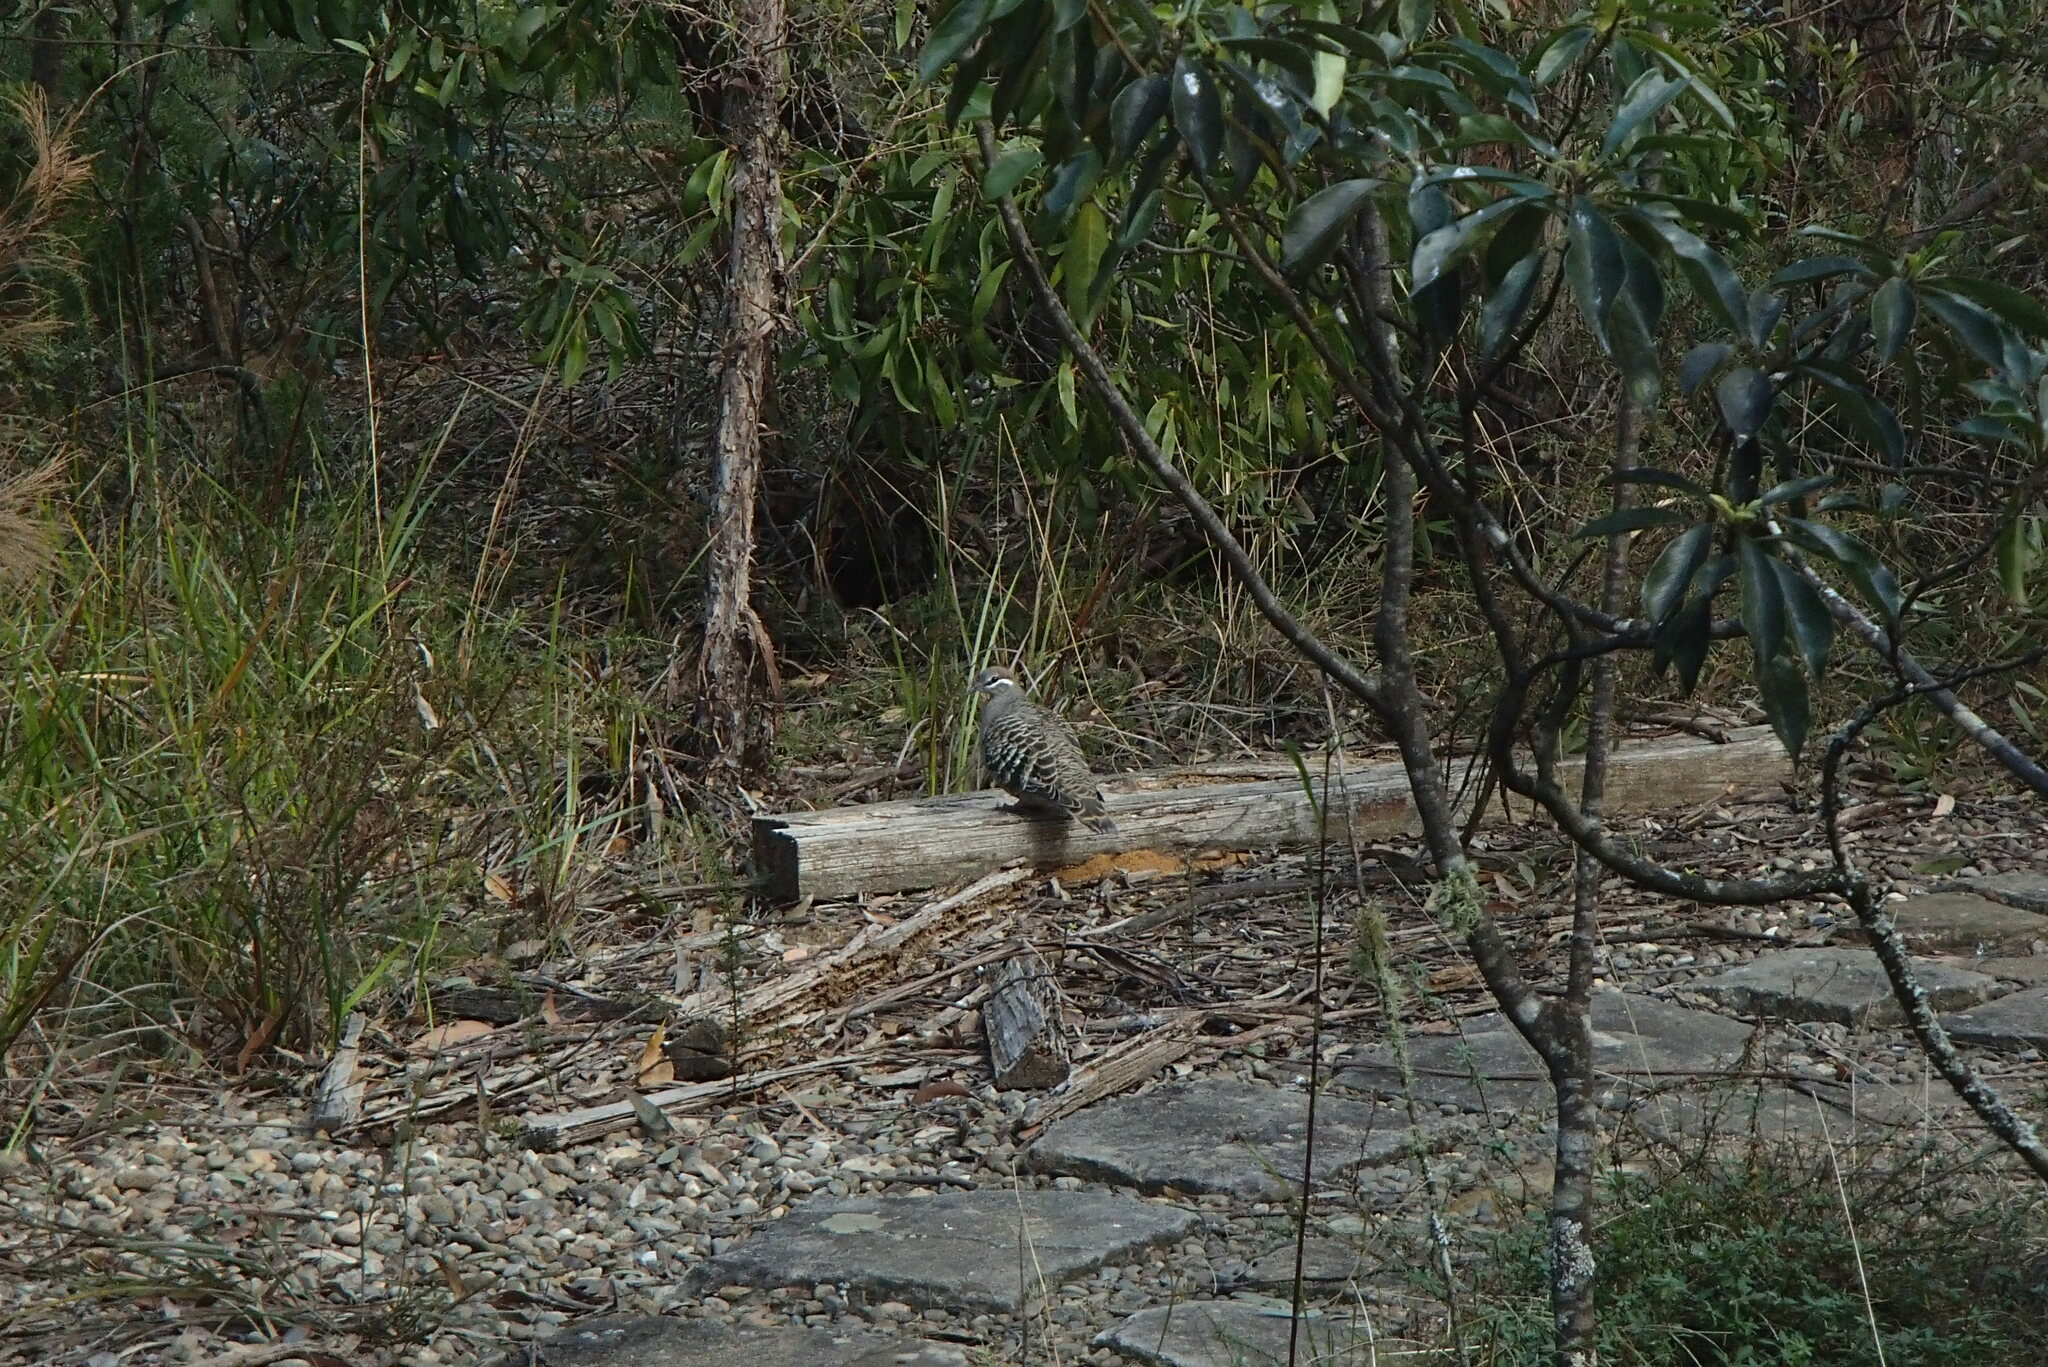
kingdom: Animalia
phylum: Chordata
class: Aves
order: Columbiformes
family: Columbidae
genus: Phaps
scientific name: Phaps chalcoptera
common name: Common bronzewing
